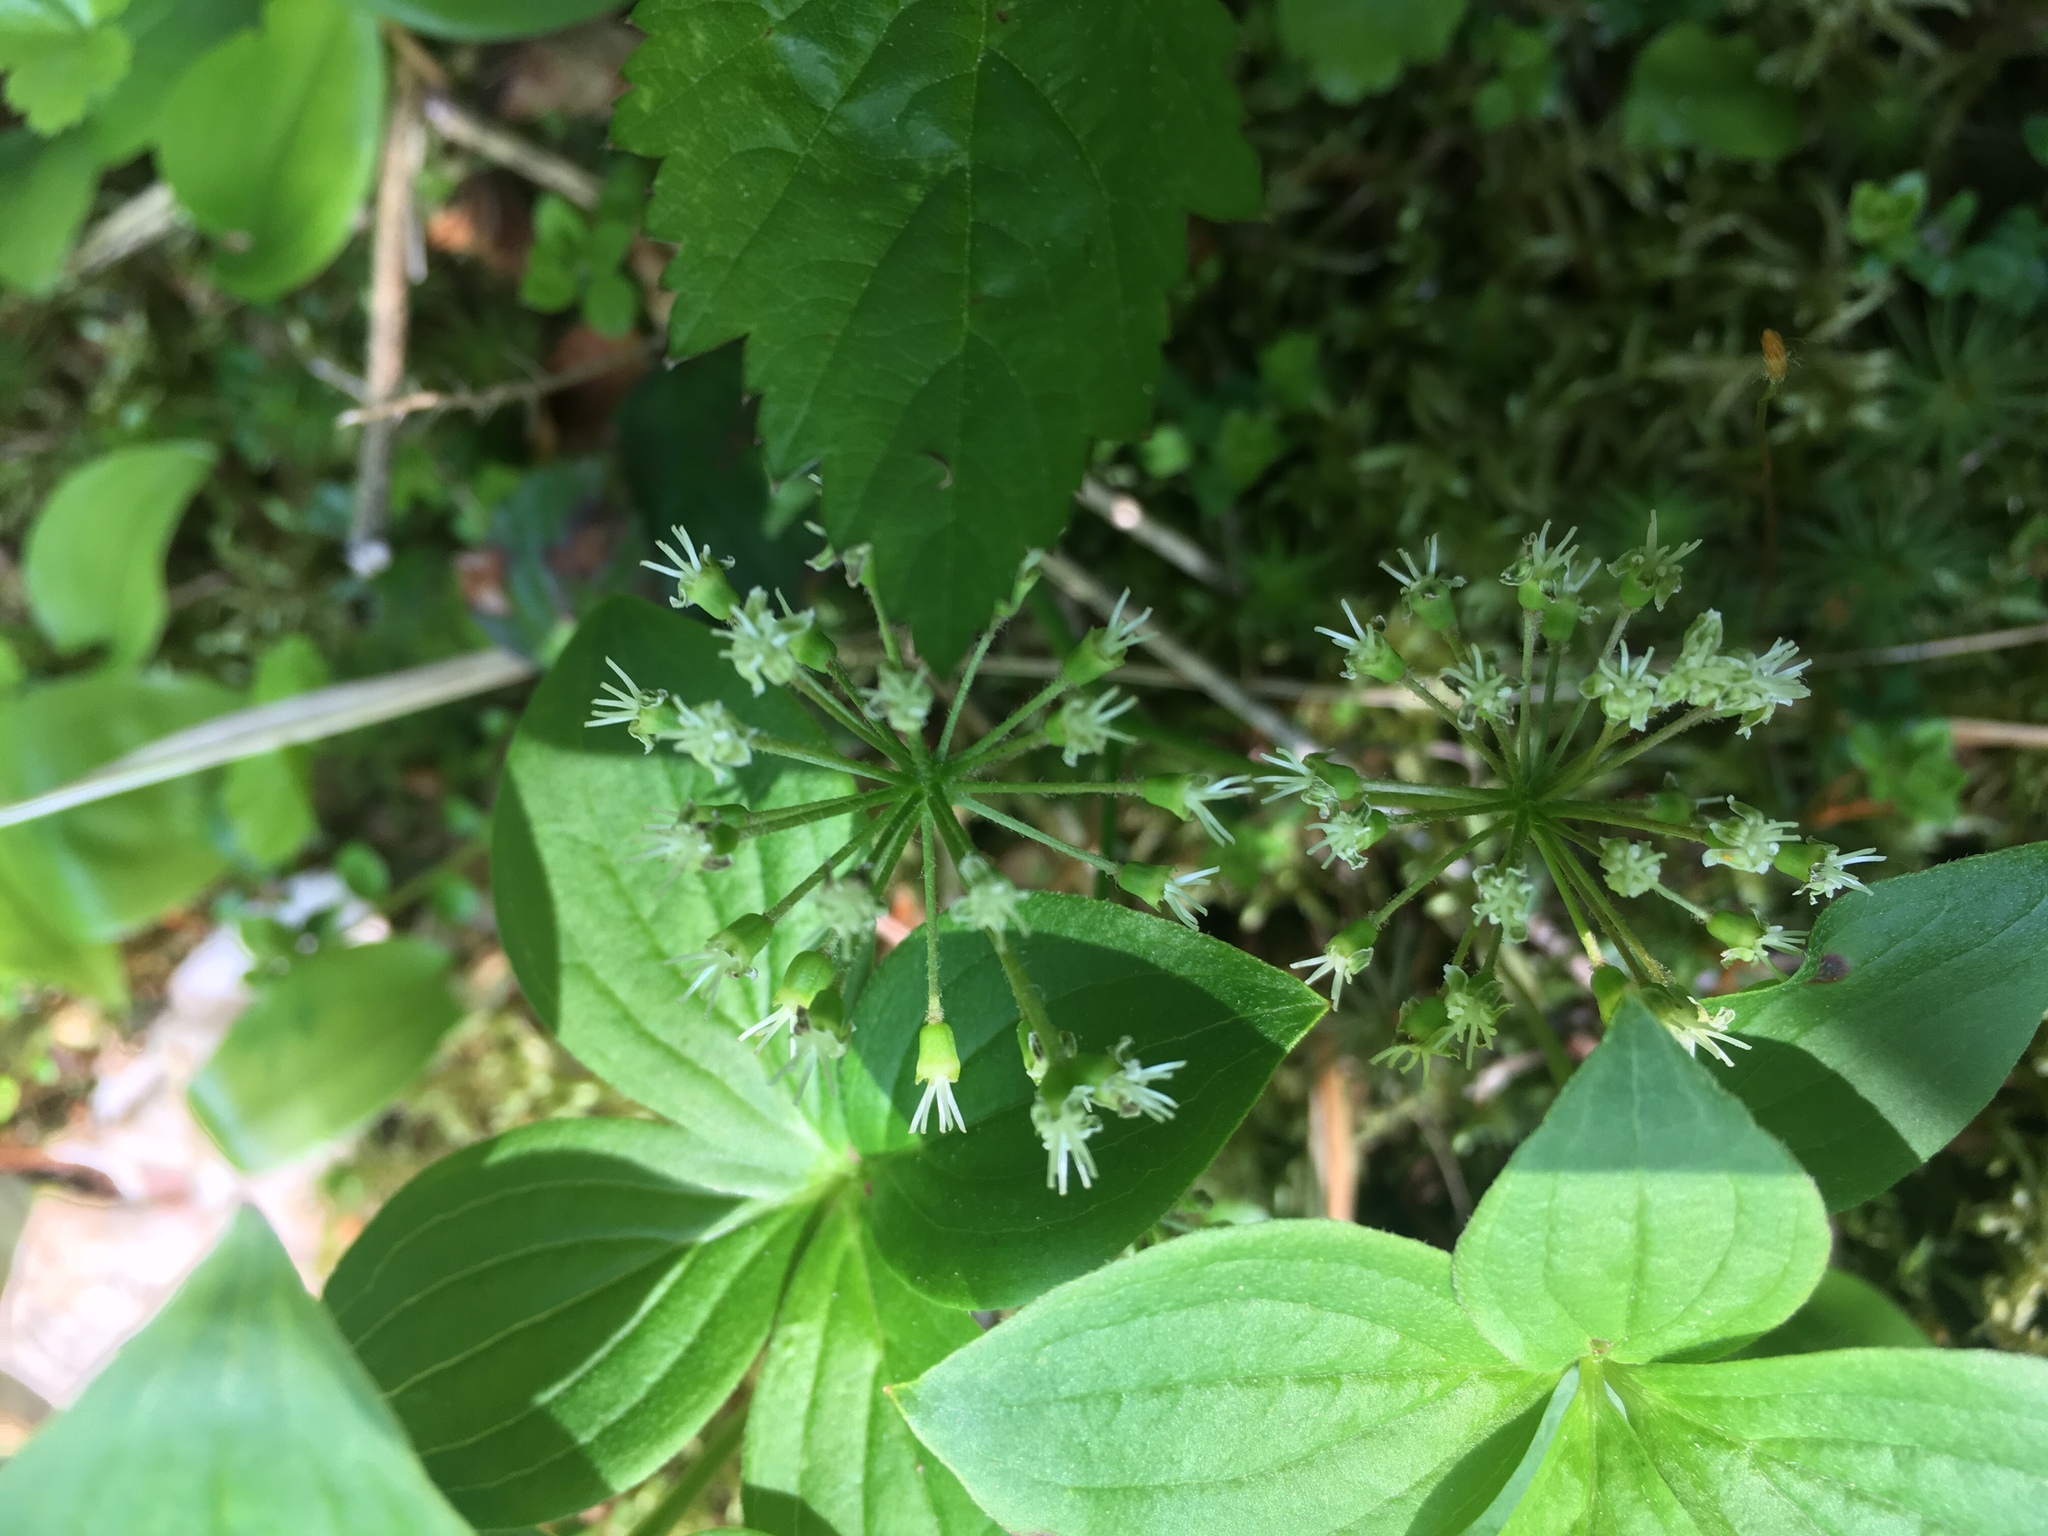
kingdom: Plantae
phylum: Tracheophyta
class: Magnoliopsida
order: Apiales
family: Araliaceae
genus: Aralia
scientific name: Aralia nudicaulis
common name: Wild sarsaparilla
